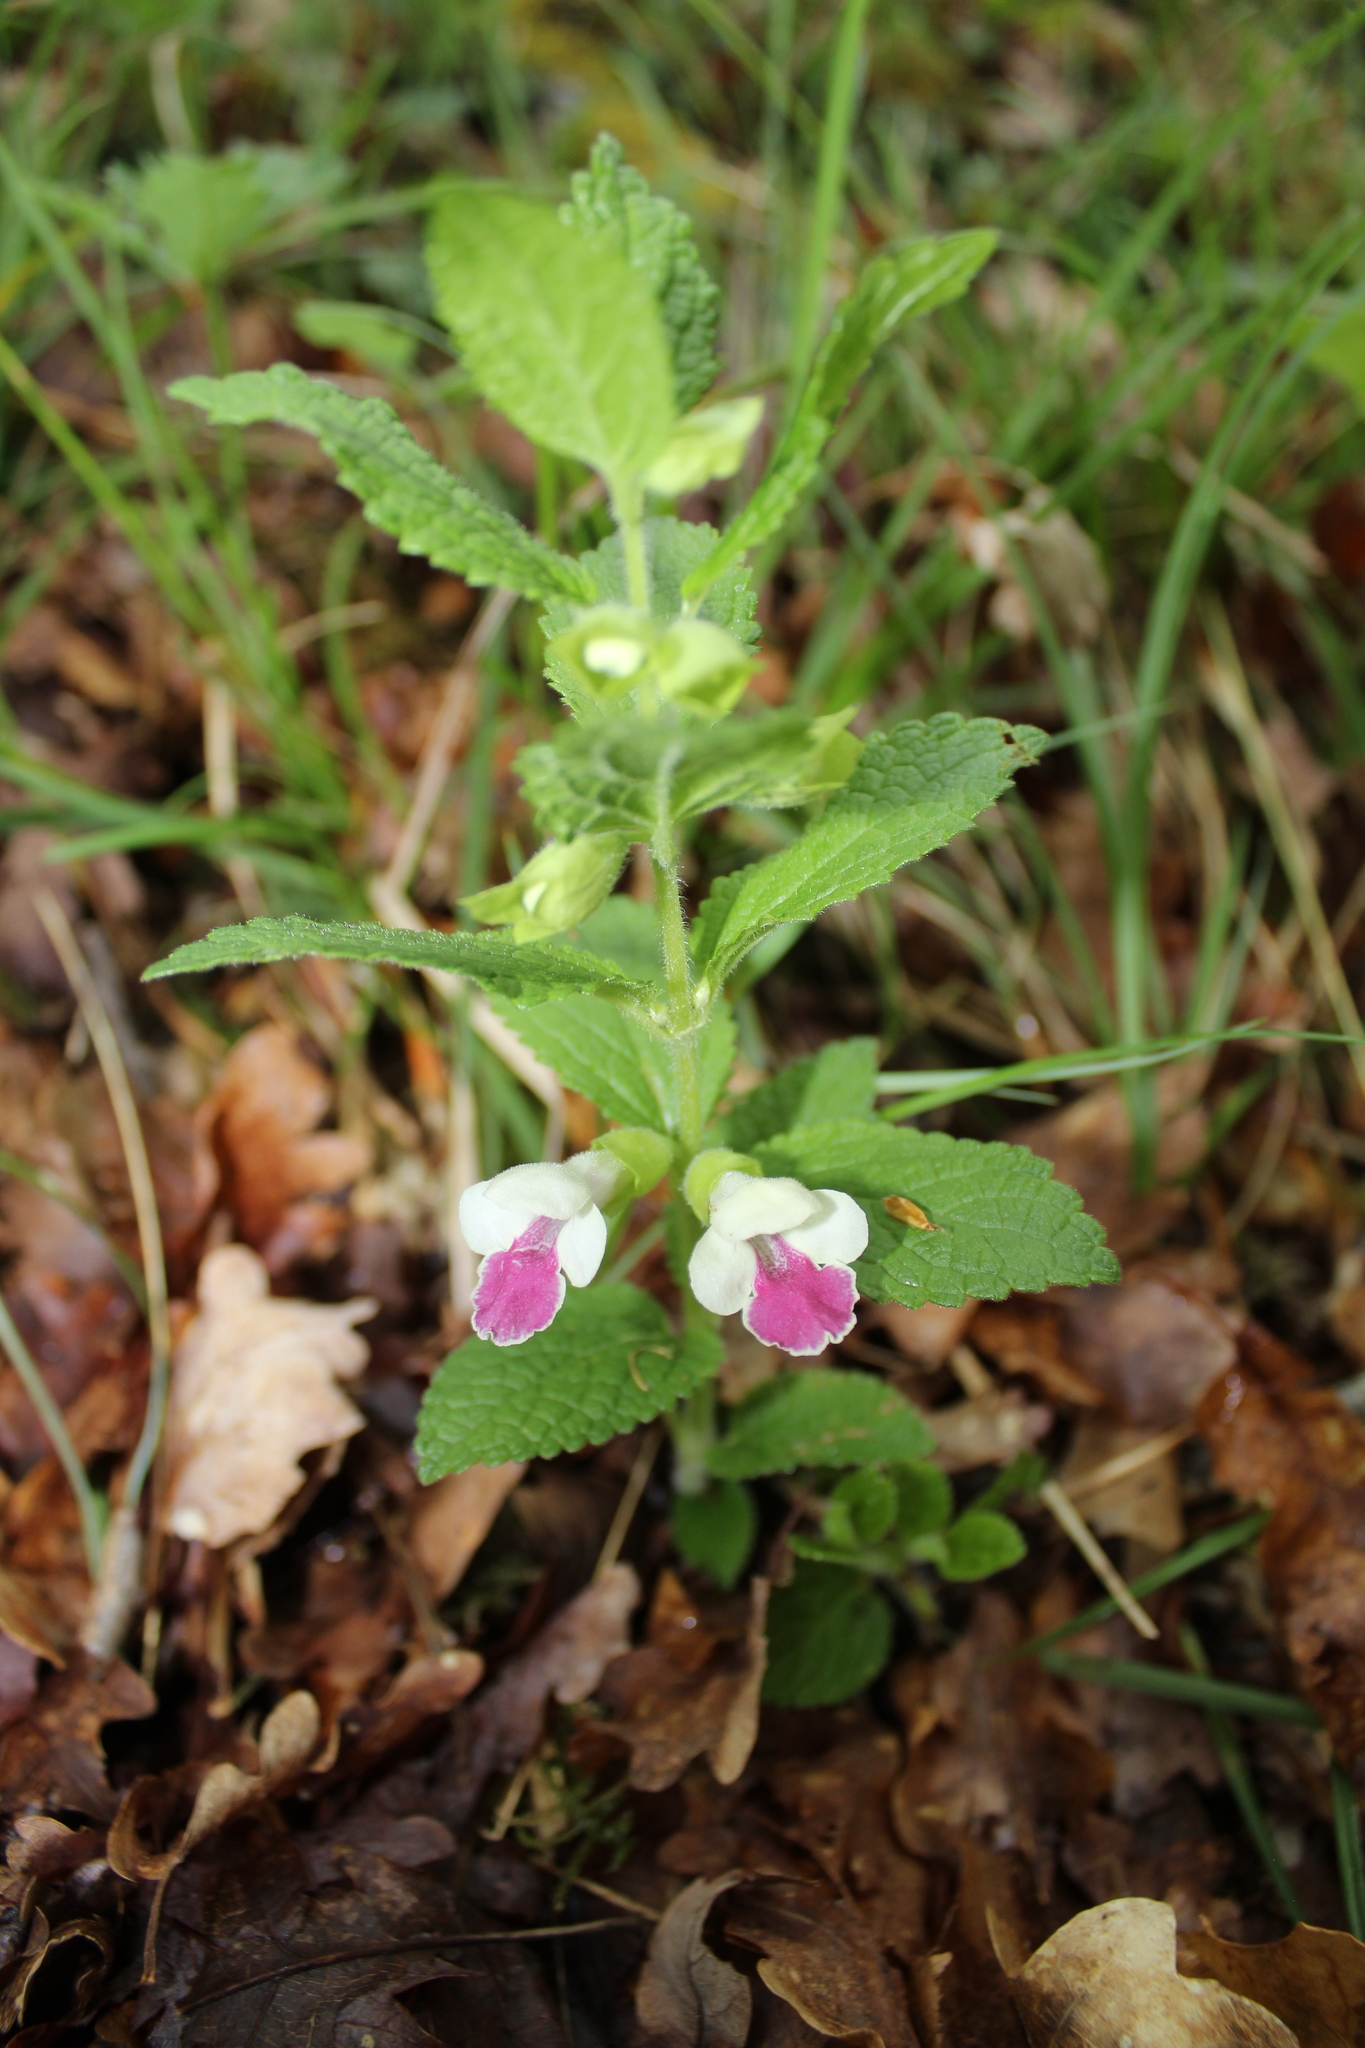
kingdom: Plantae
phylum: Tracheophyta
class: Magnoliopsida
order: Lamiales
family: Lamiaceae
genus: Melittis
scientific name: Melittis melissophyllum
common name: Bastard balm
